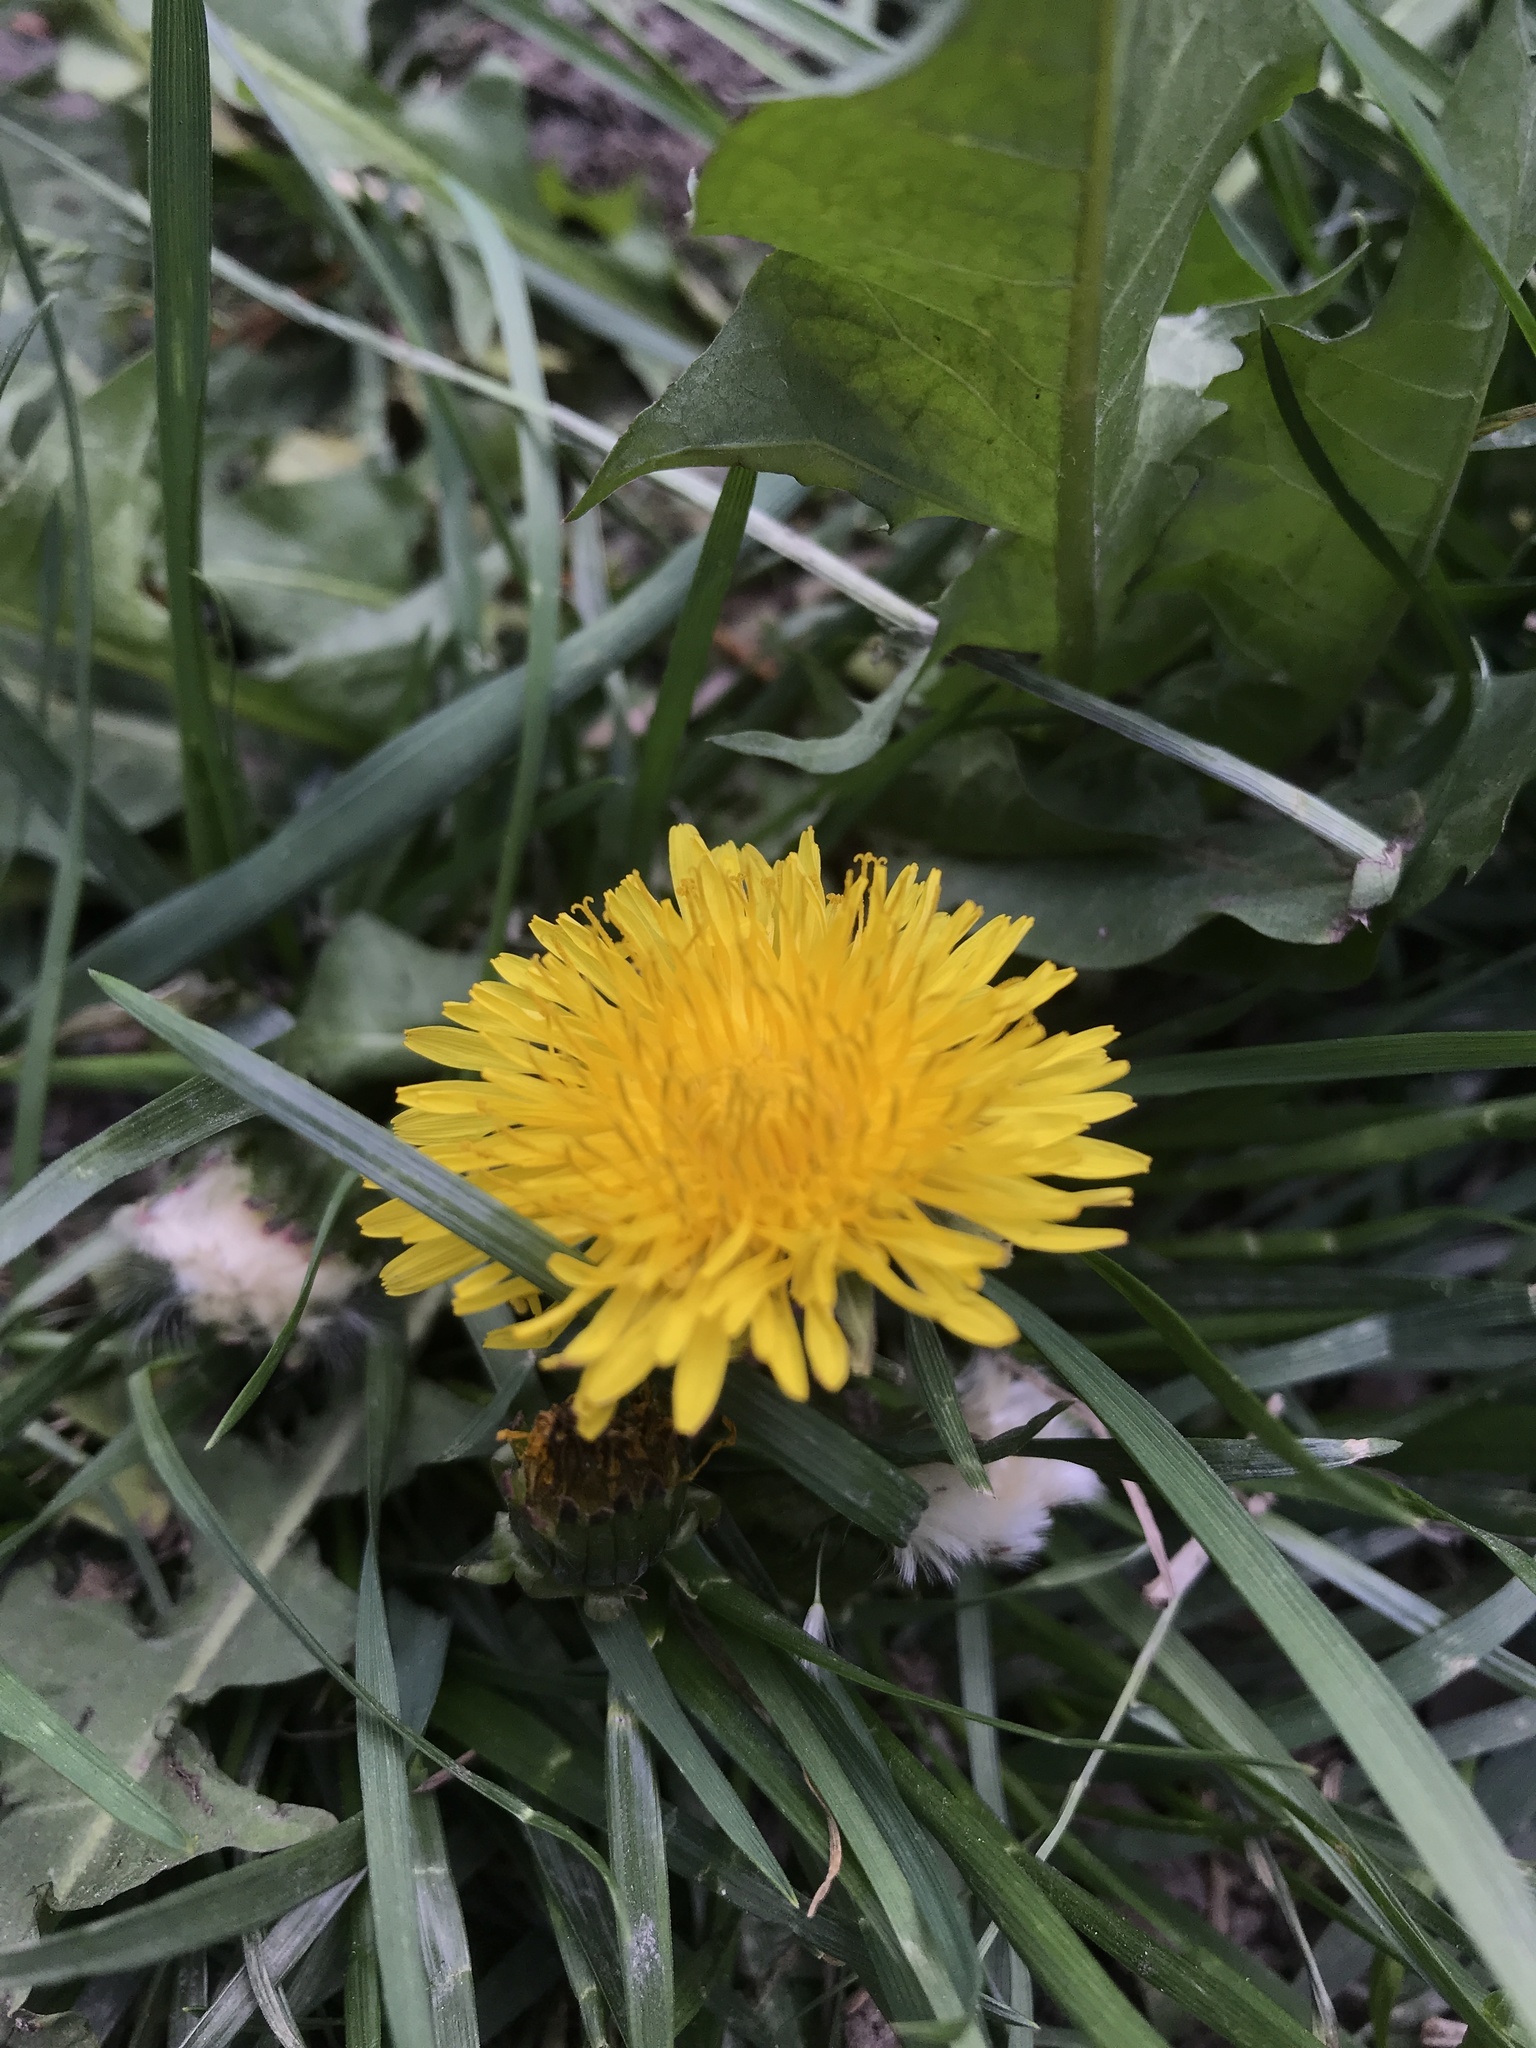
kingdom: Plantae
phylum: Tracheophyta
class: Magnoliopsida
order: Asterales
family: Asteraceae
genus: Taraxacum
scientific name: Taraxacum officinale
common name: Common dandelion
